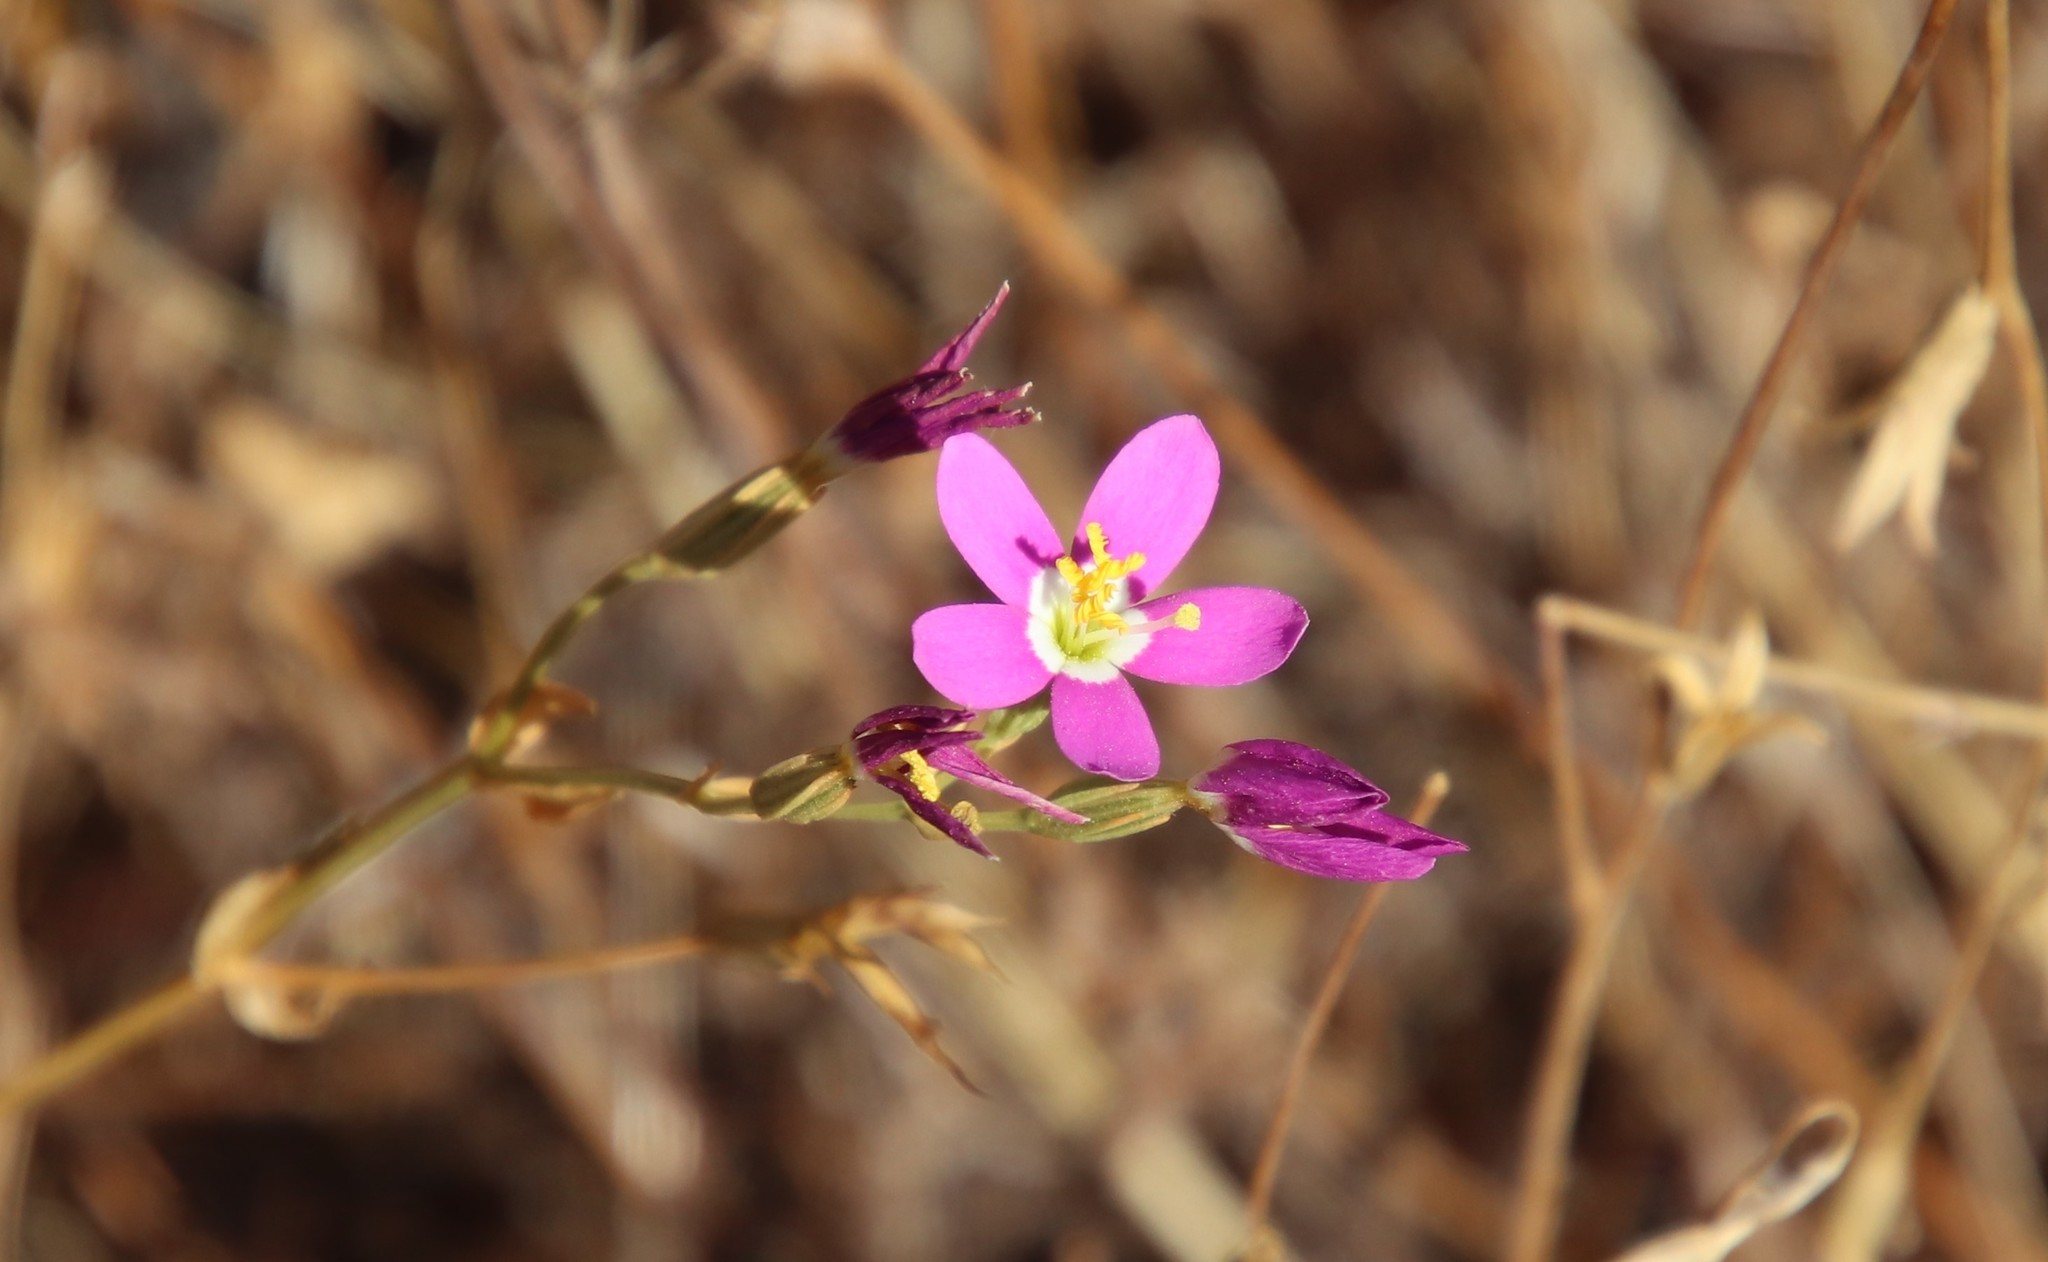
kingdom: Plantae
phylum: Tracheophyta
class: Magnoliopsida
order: Gentianales
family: Gentianaceae
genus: Zeltnera
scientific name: Zeltnera venusta
